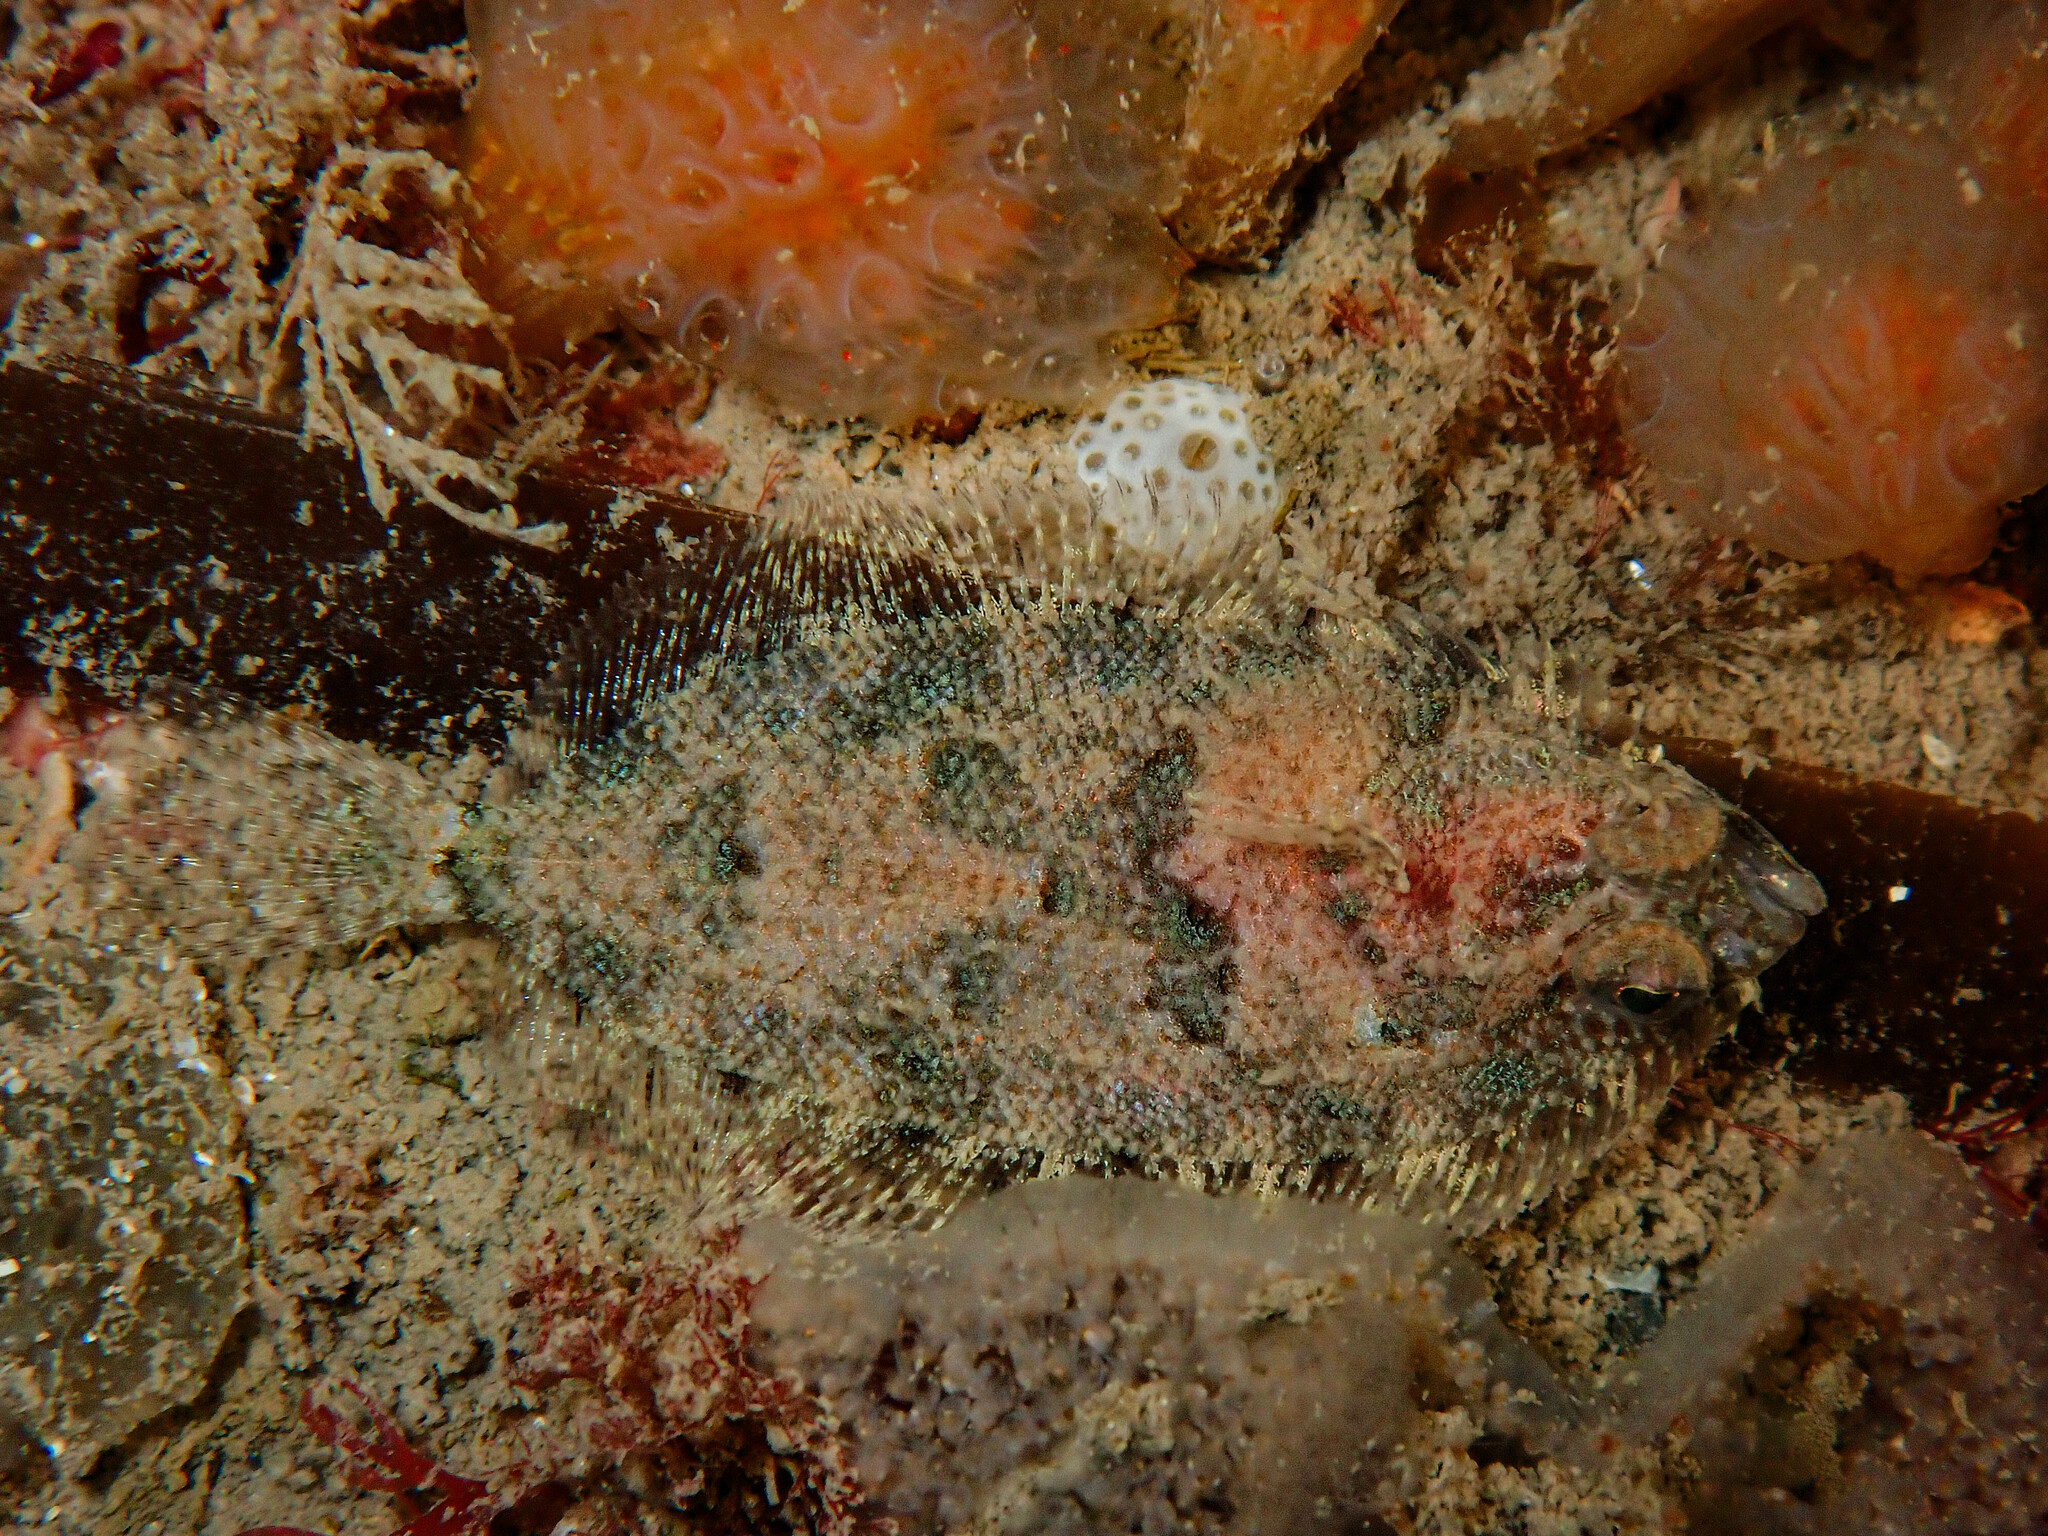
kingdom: Animalia
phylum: Chordata
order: Pleuronectiformes
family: Scophthalmidae
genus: Phrynorhombus
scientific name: Phrynorhombus norvegicus
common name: Norwegian topknot
